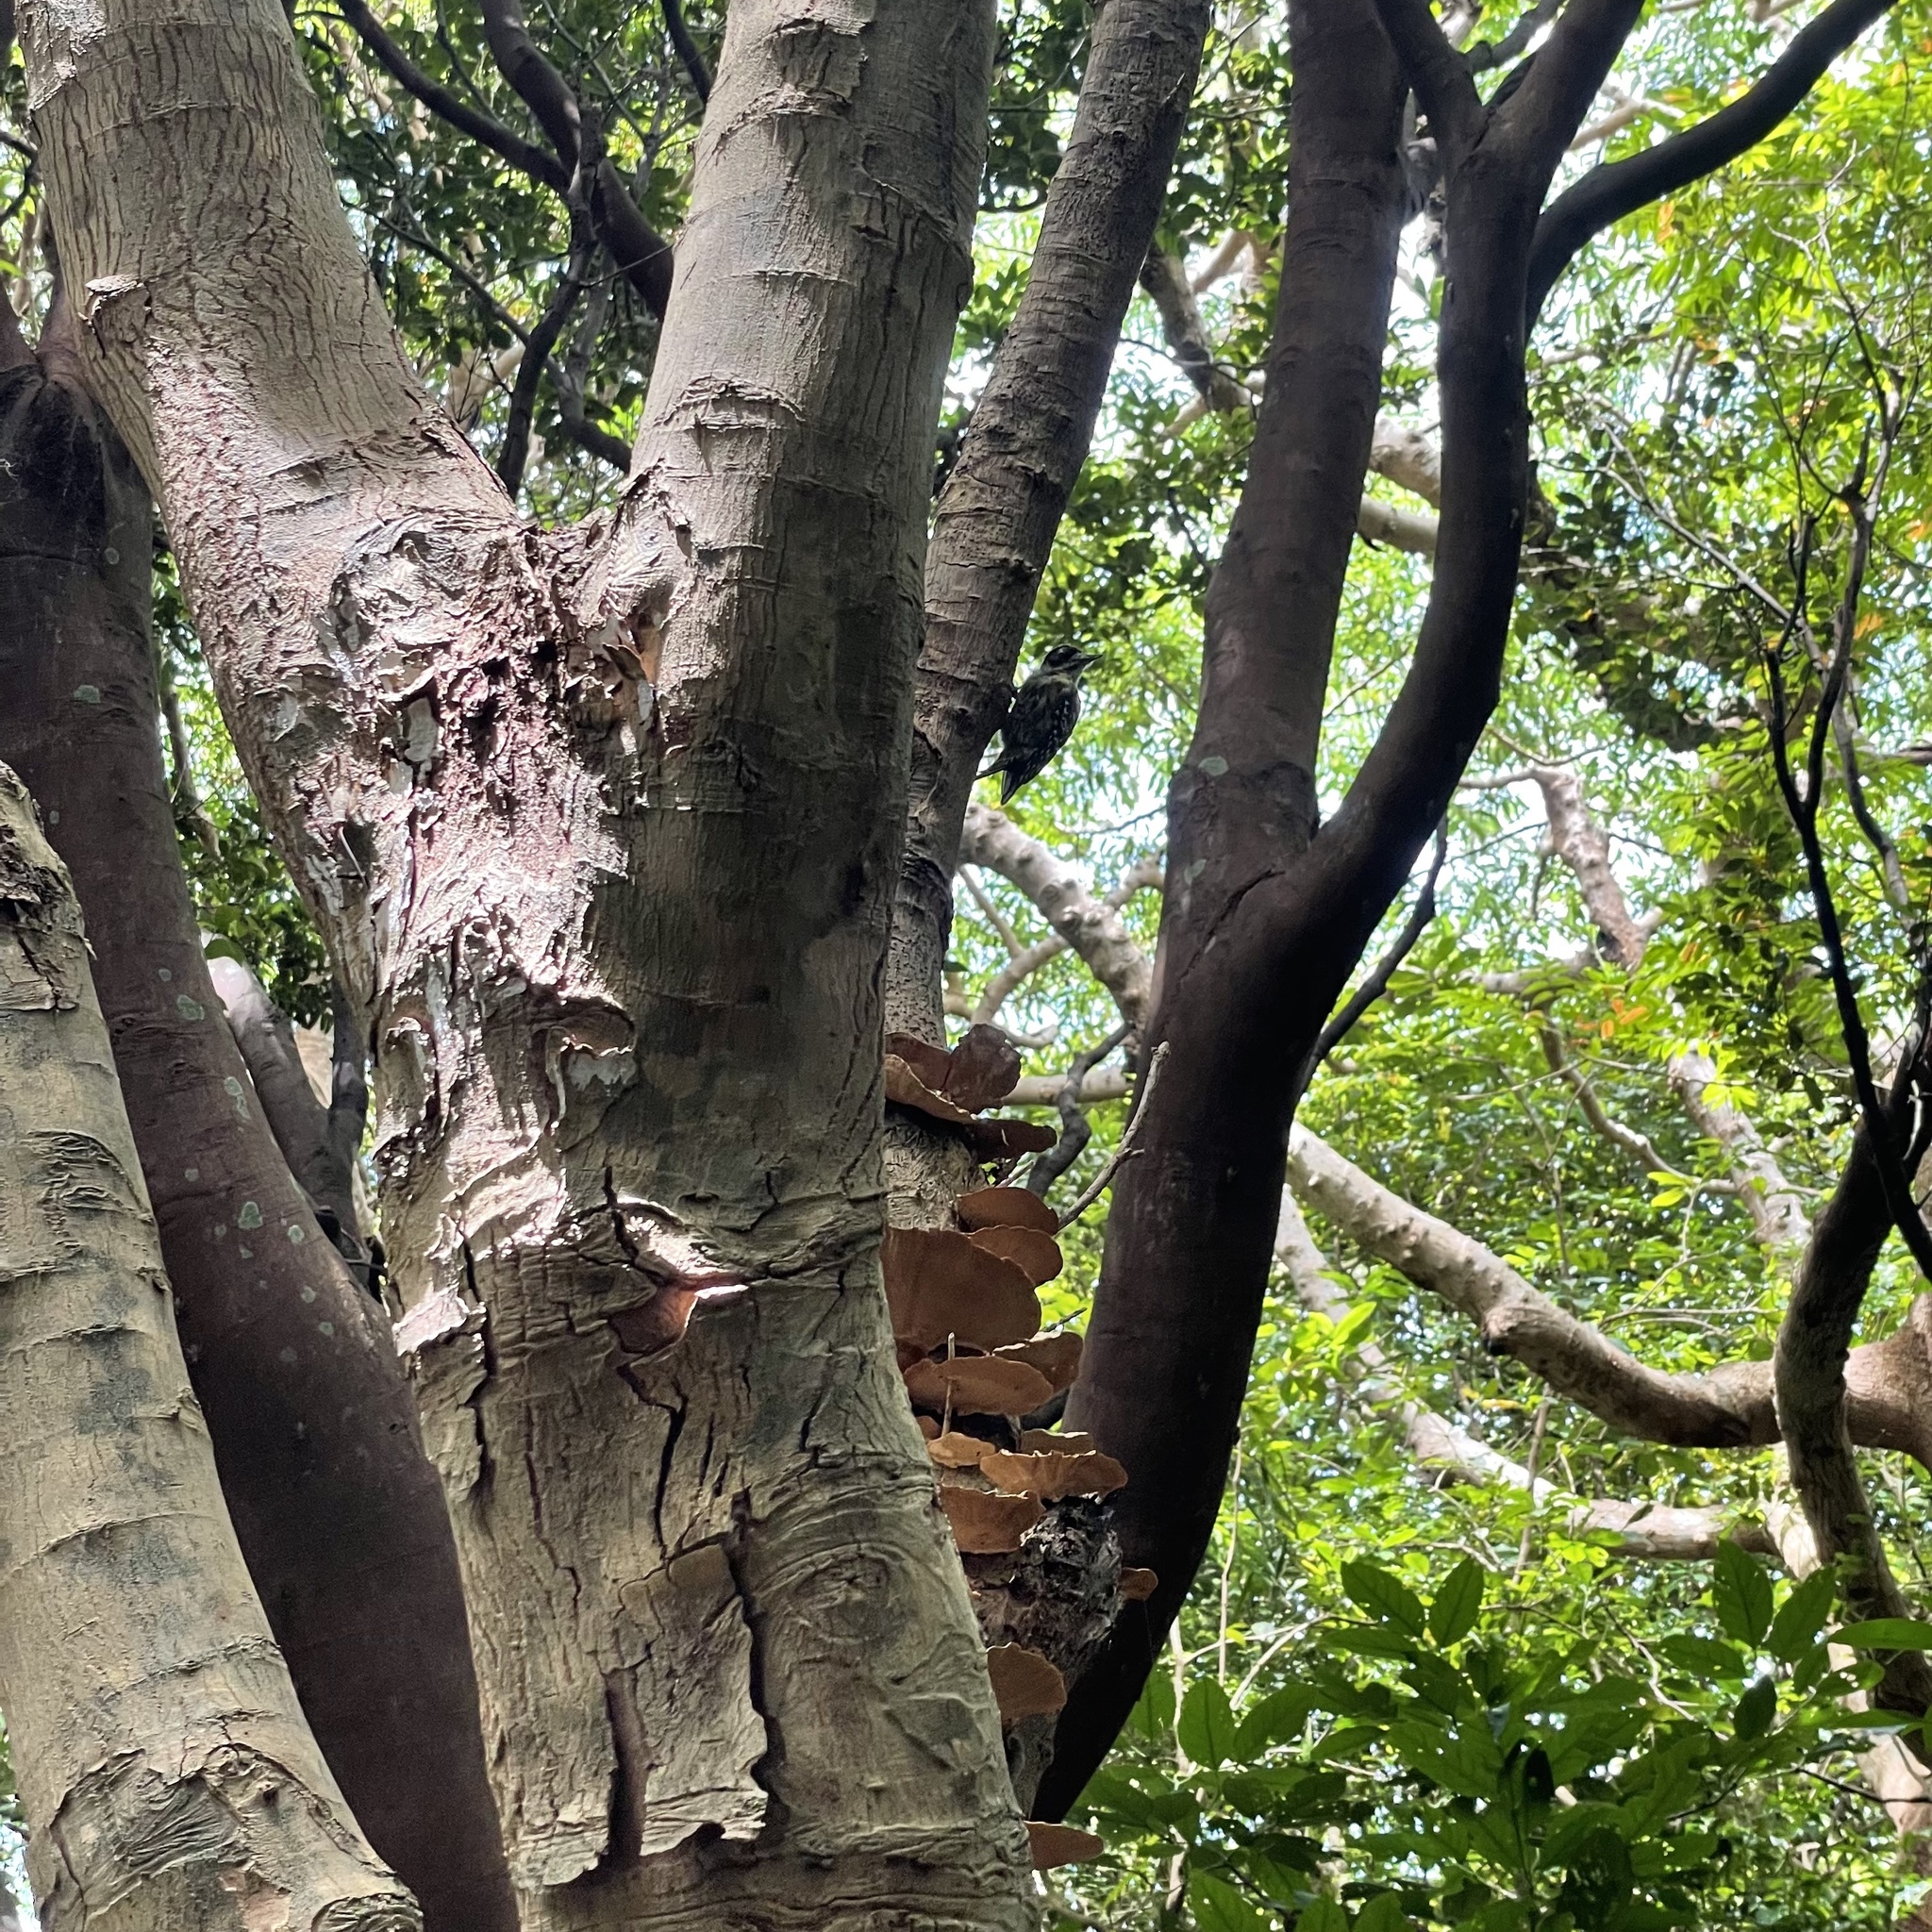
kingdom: Animalia
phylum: Chordata
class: Aves
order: Piciformes
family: Picidae
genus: Yungipicus
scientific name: Yungipicus kizuki
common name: Japanese pygmy woodpecker
